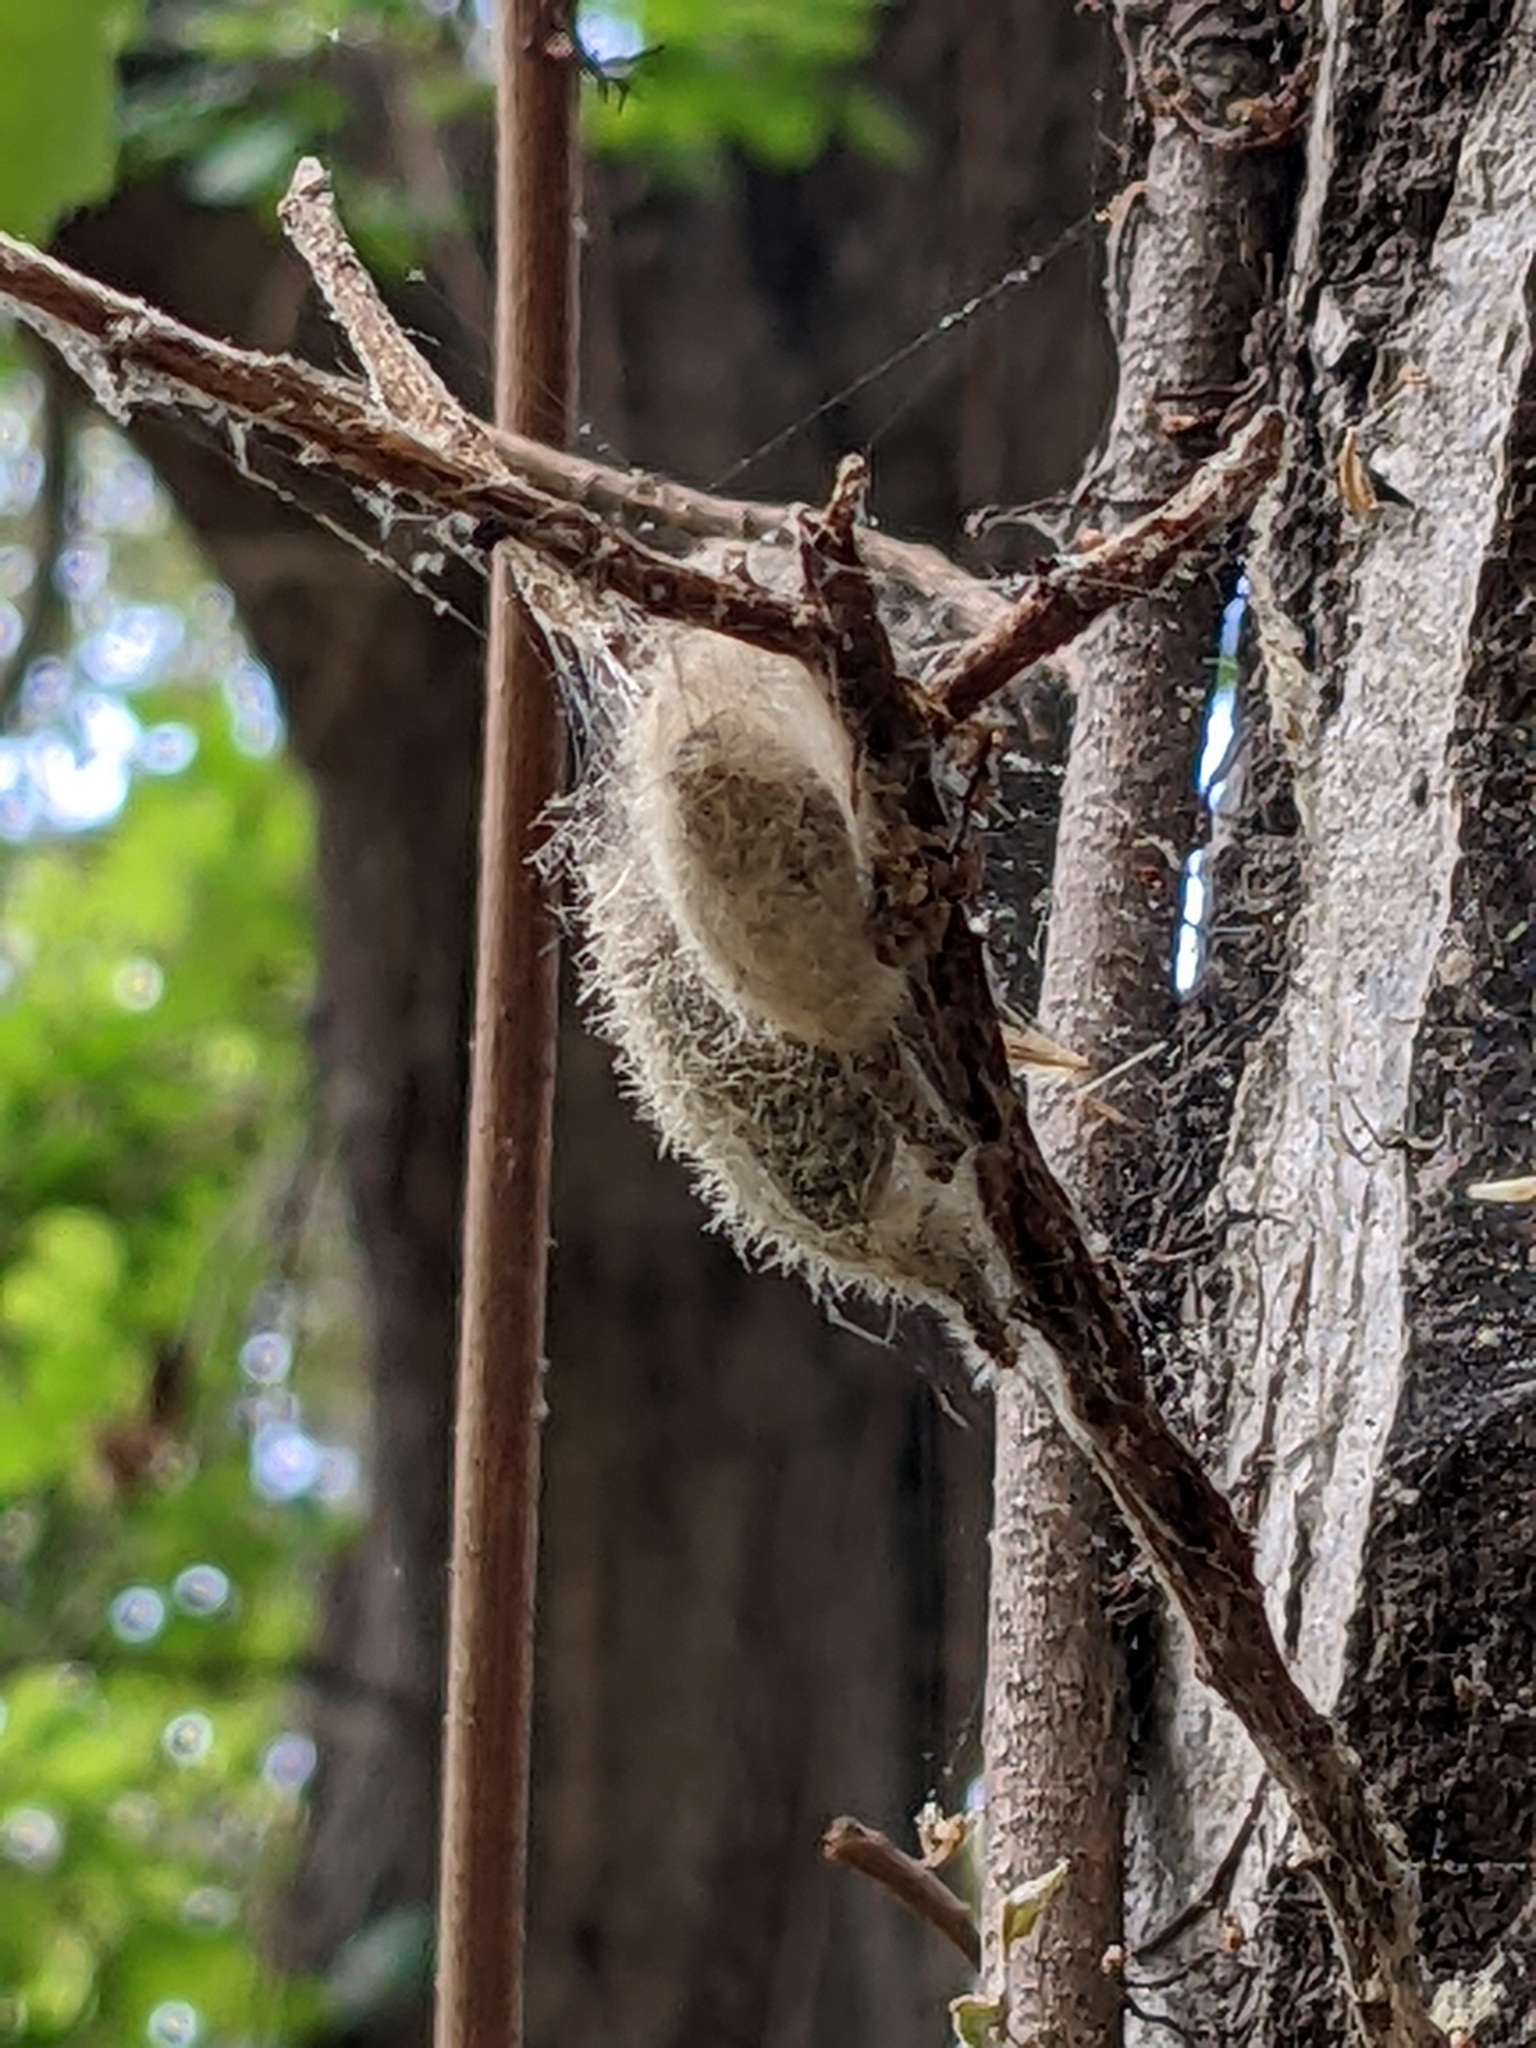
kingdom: Animalia
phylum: Arthropoda
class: Insecta
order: Lepidoptera
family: Erebidae
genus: Orgyia
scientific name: Orgyia vetusta
